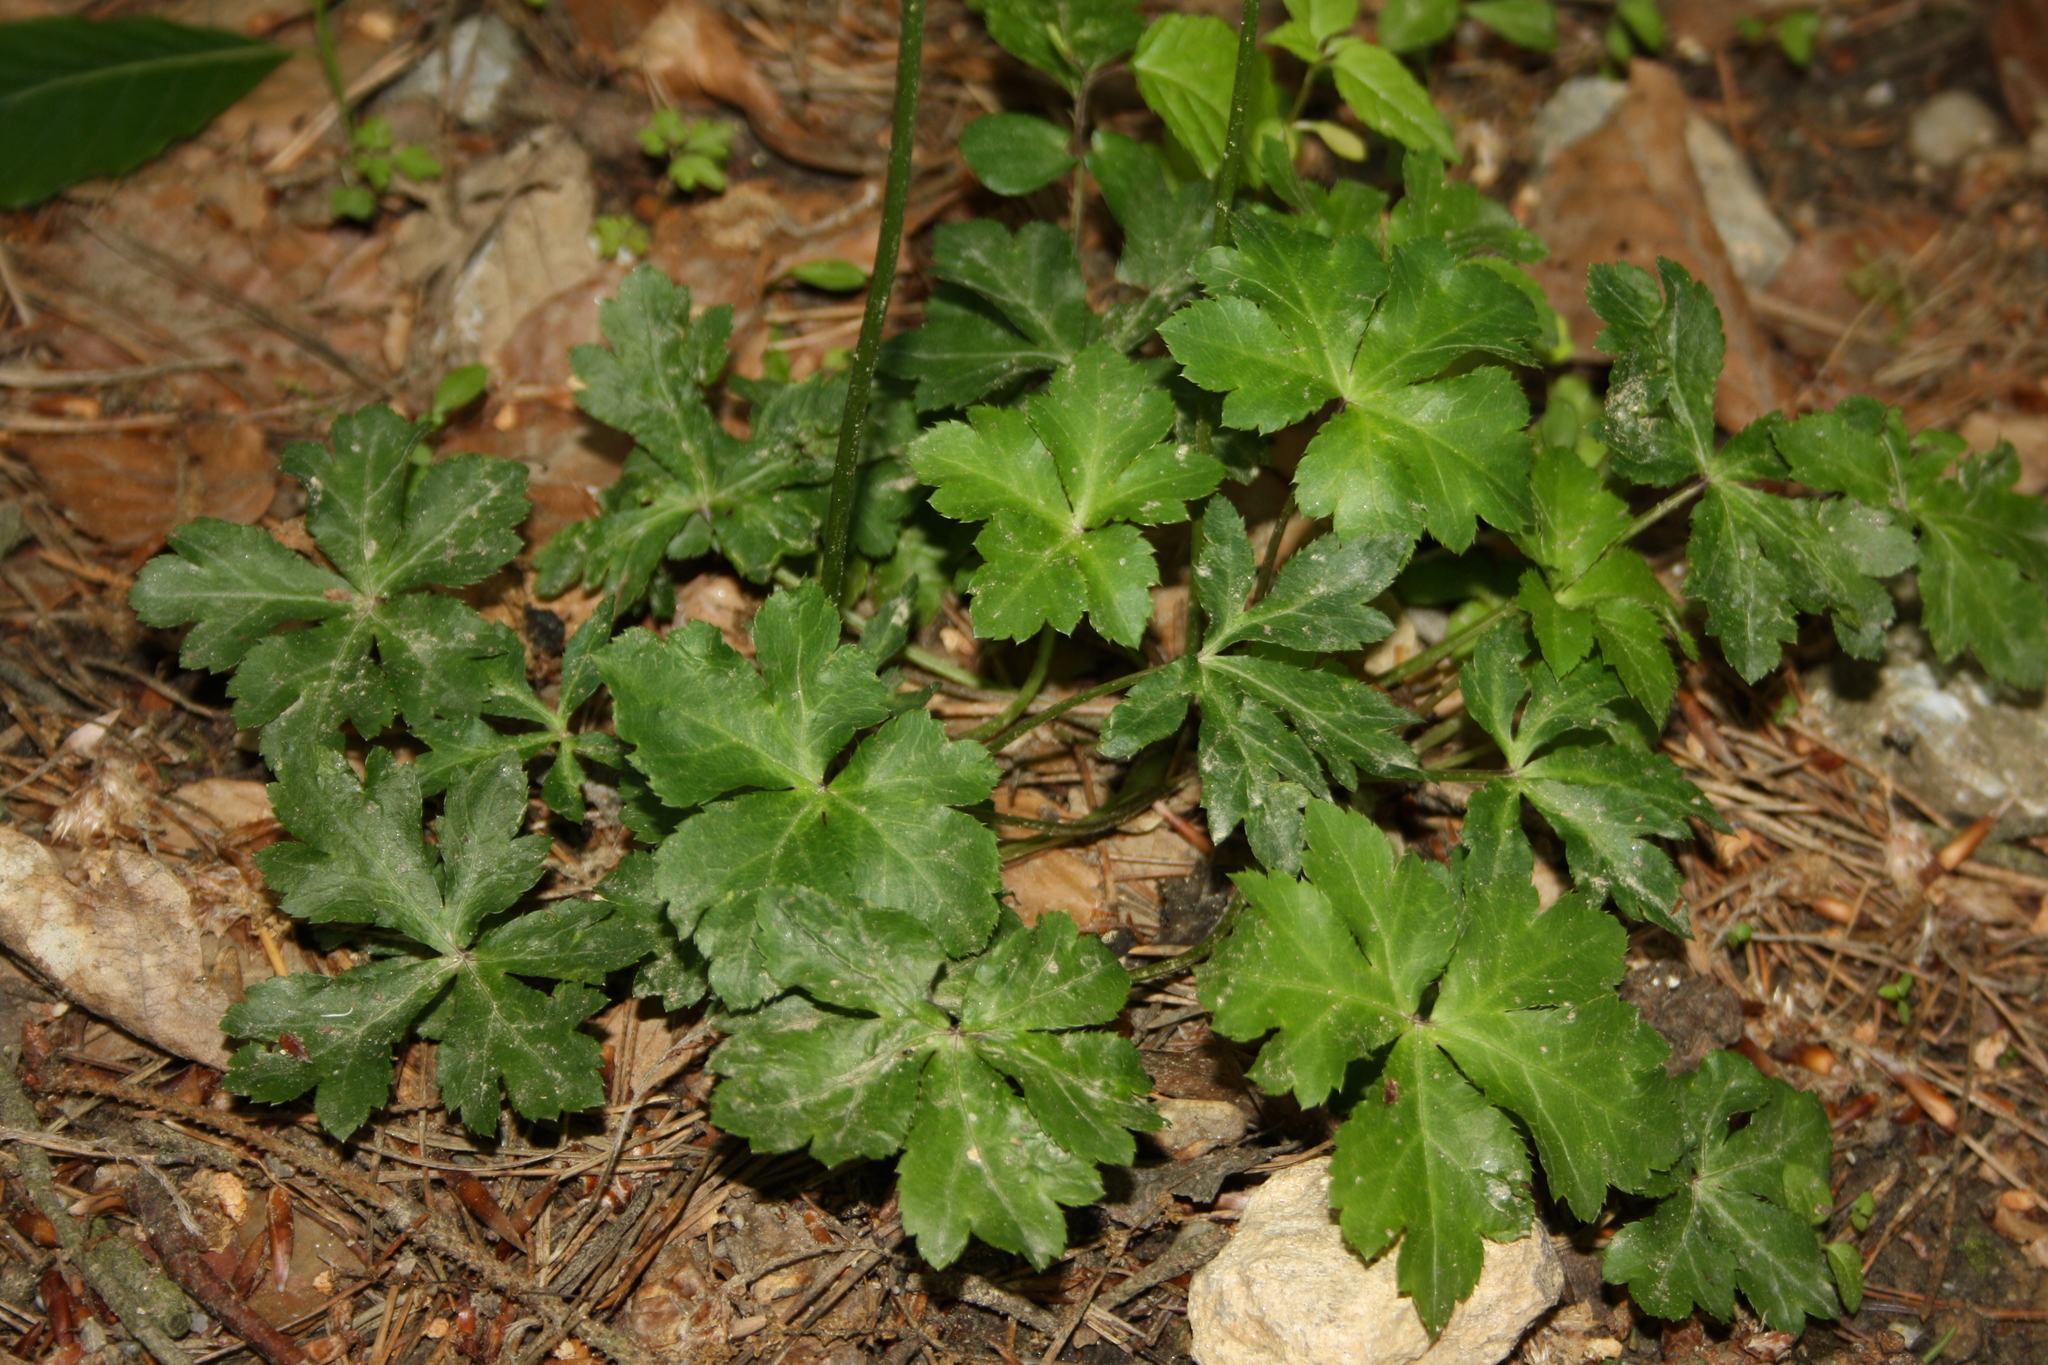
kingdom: Plantae
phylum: Tracheophyta
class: Magnoliopsida
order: Apiales
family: Apiaceae
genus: Sanicula
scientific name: Sanicula europaea
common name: Sanicle
